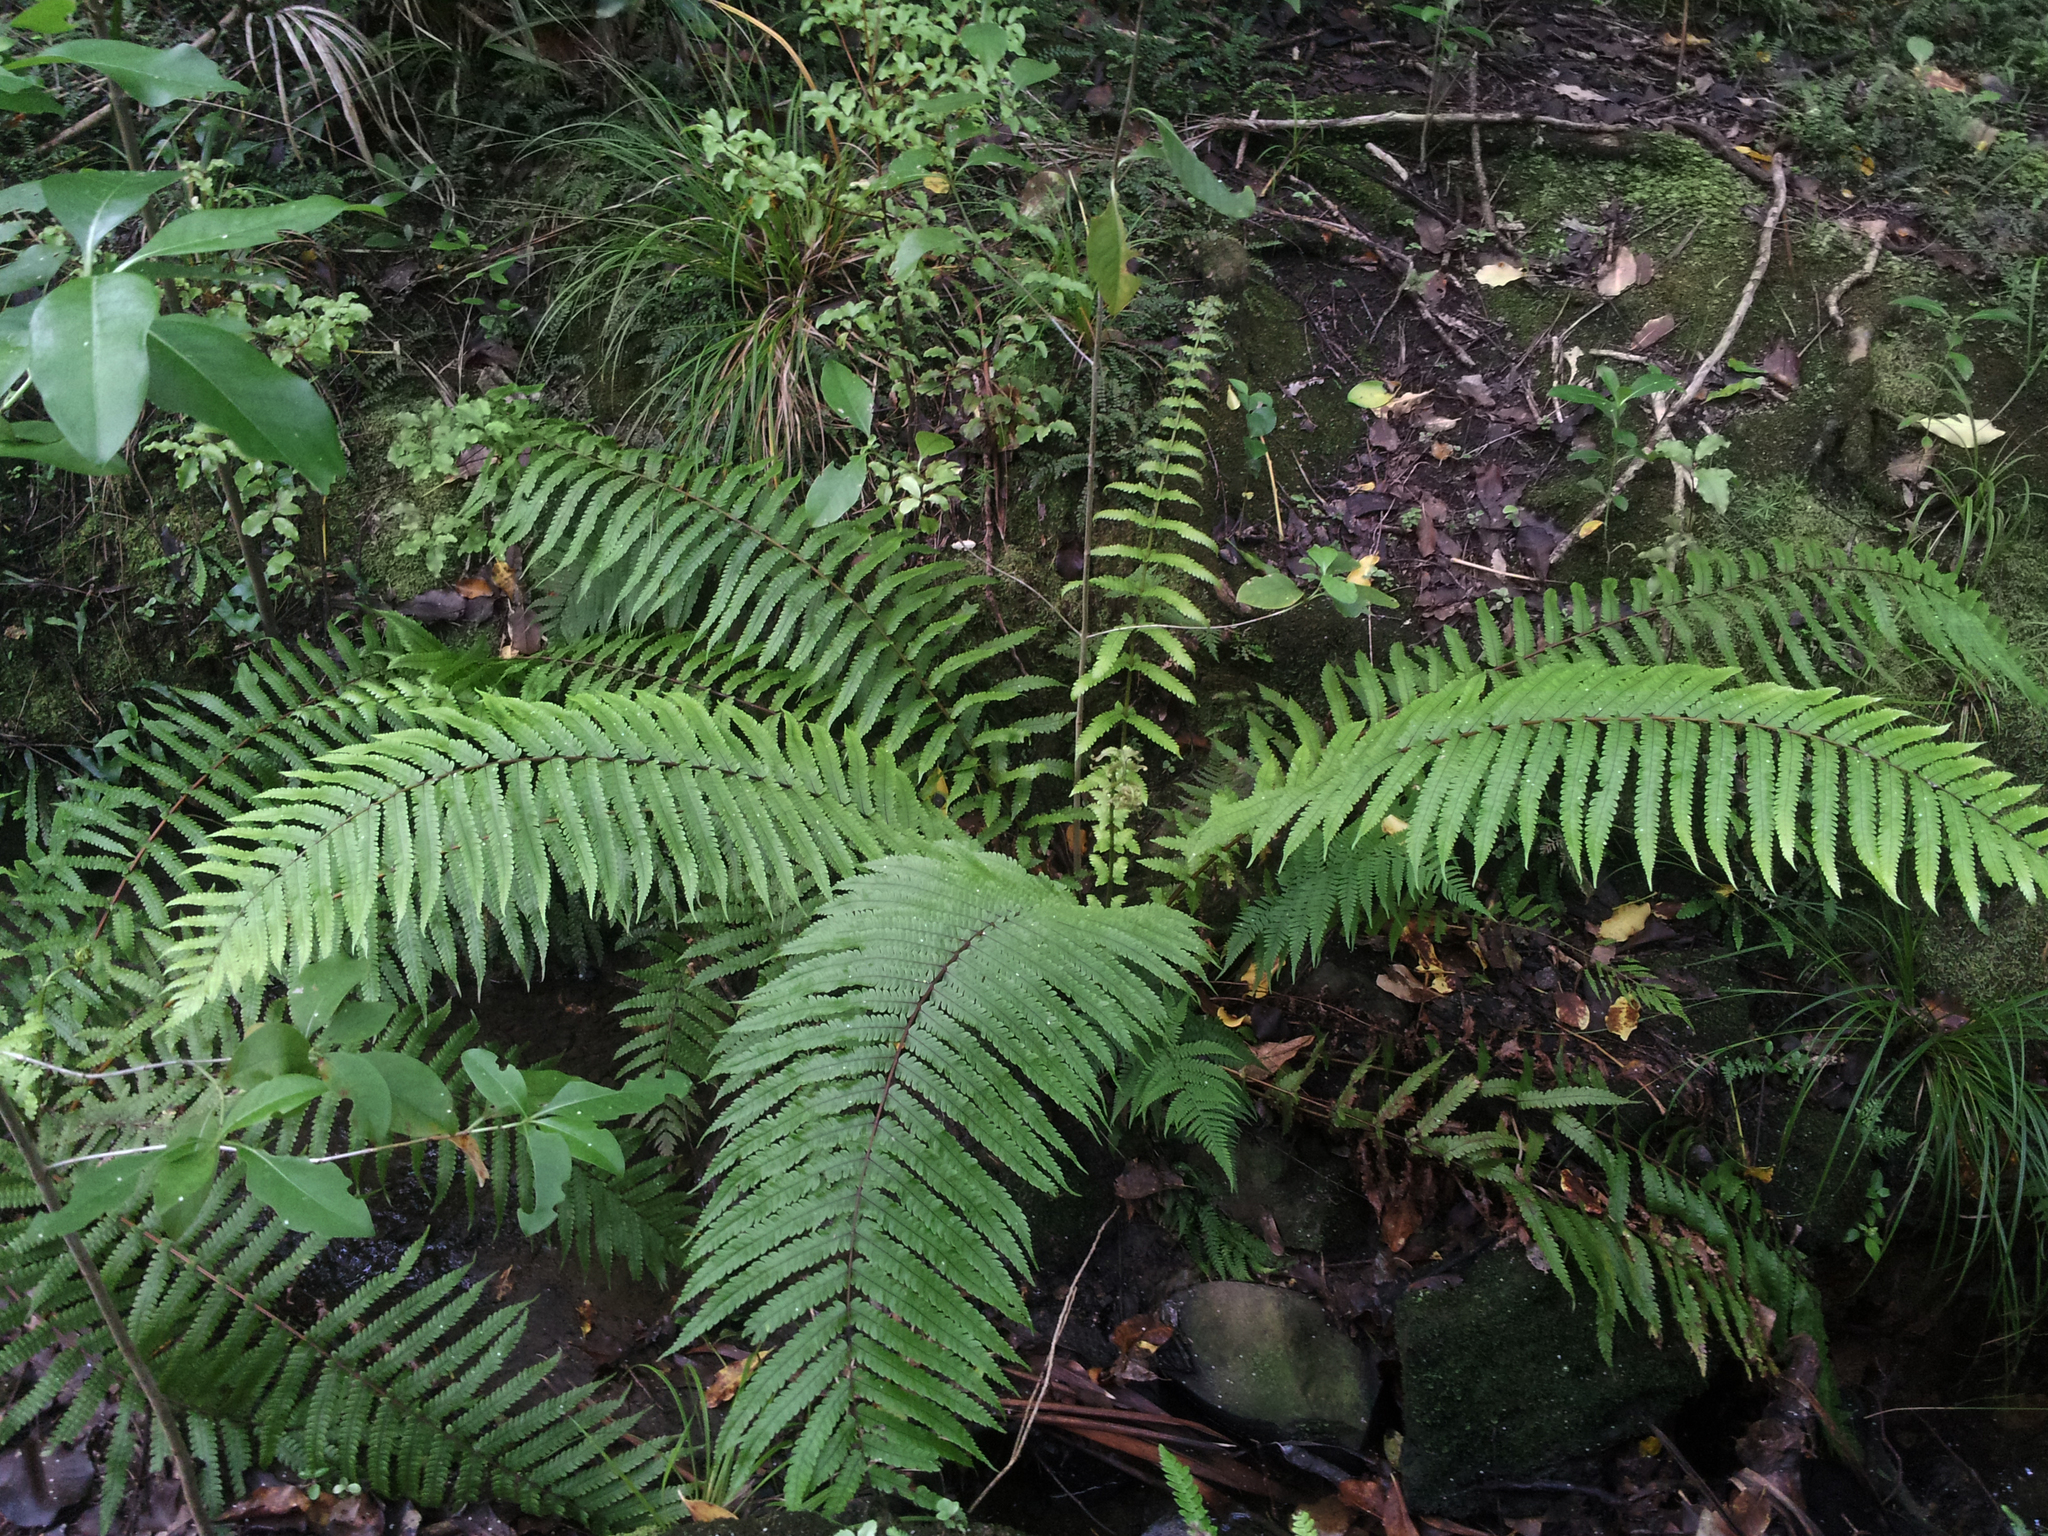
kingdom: Plantae
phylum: Tracheophyta
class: Polypodiopsida
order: Polypodiales
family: Thelypteridaceae
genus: Pakau
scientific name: Pakau pennigera
